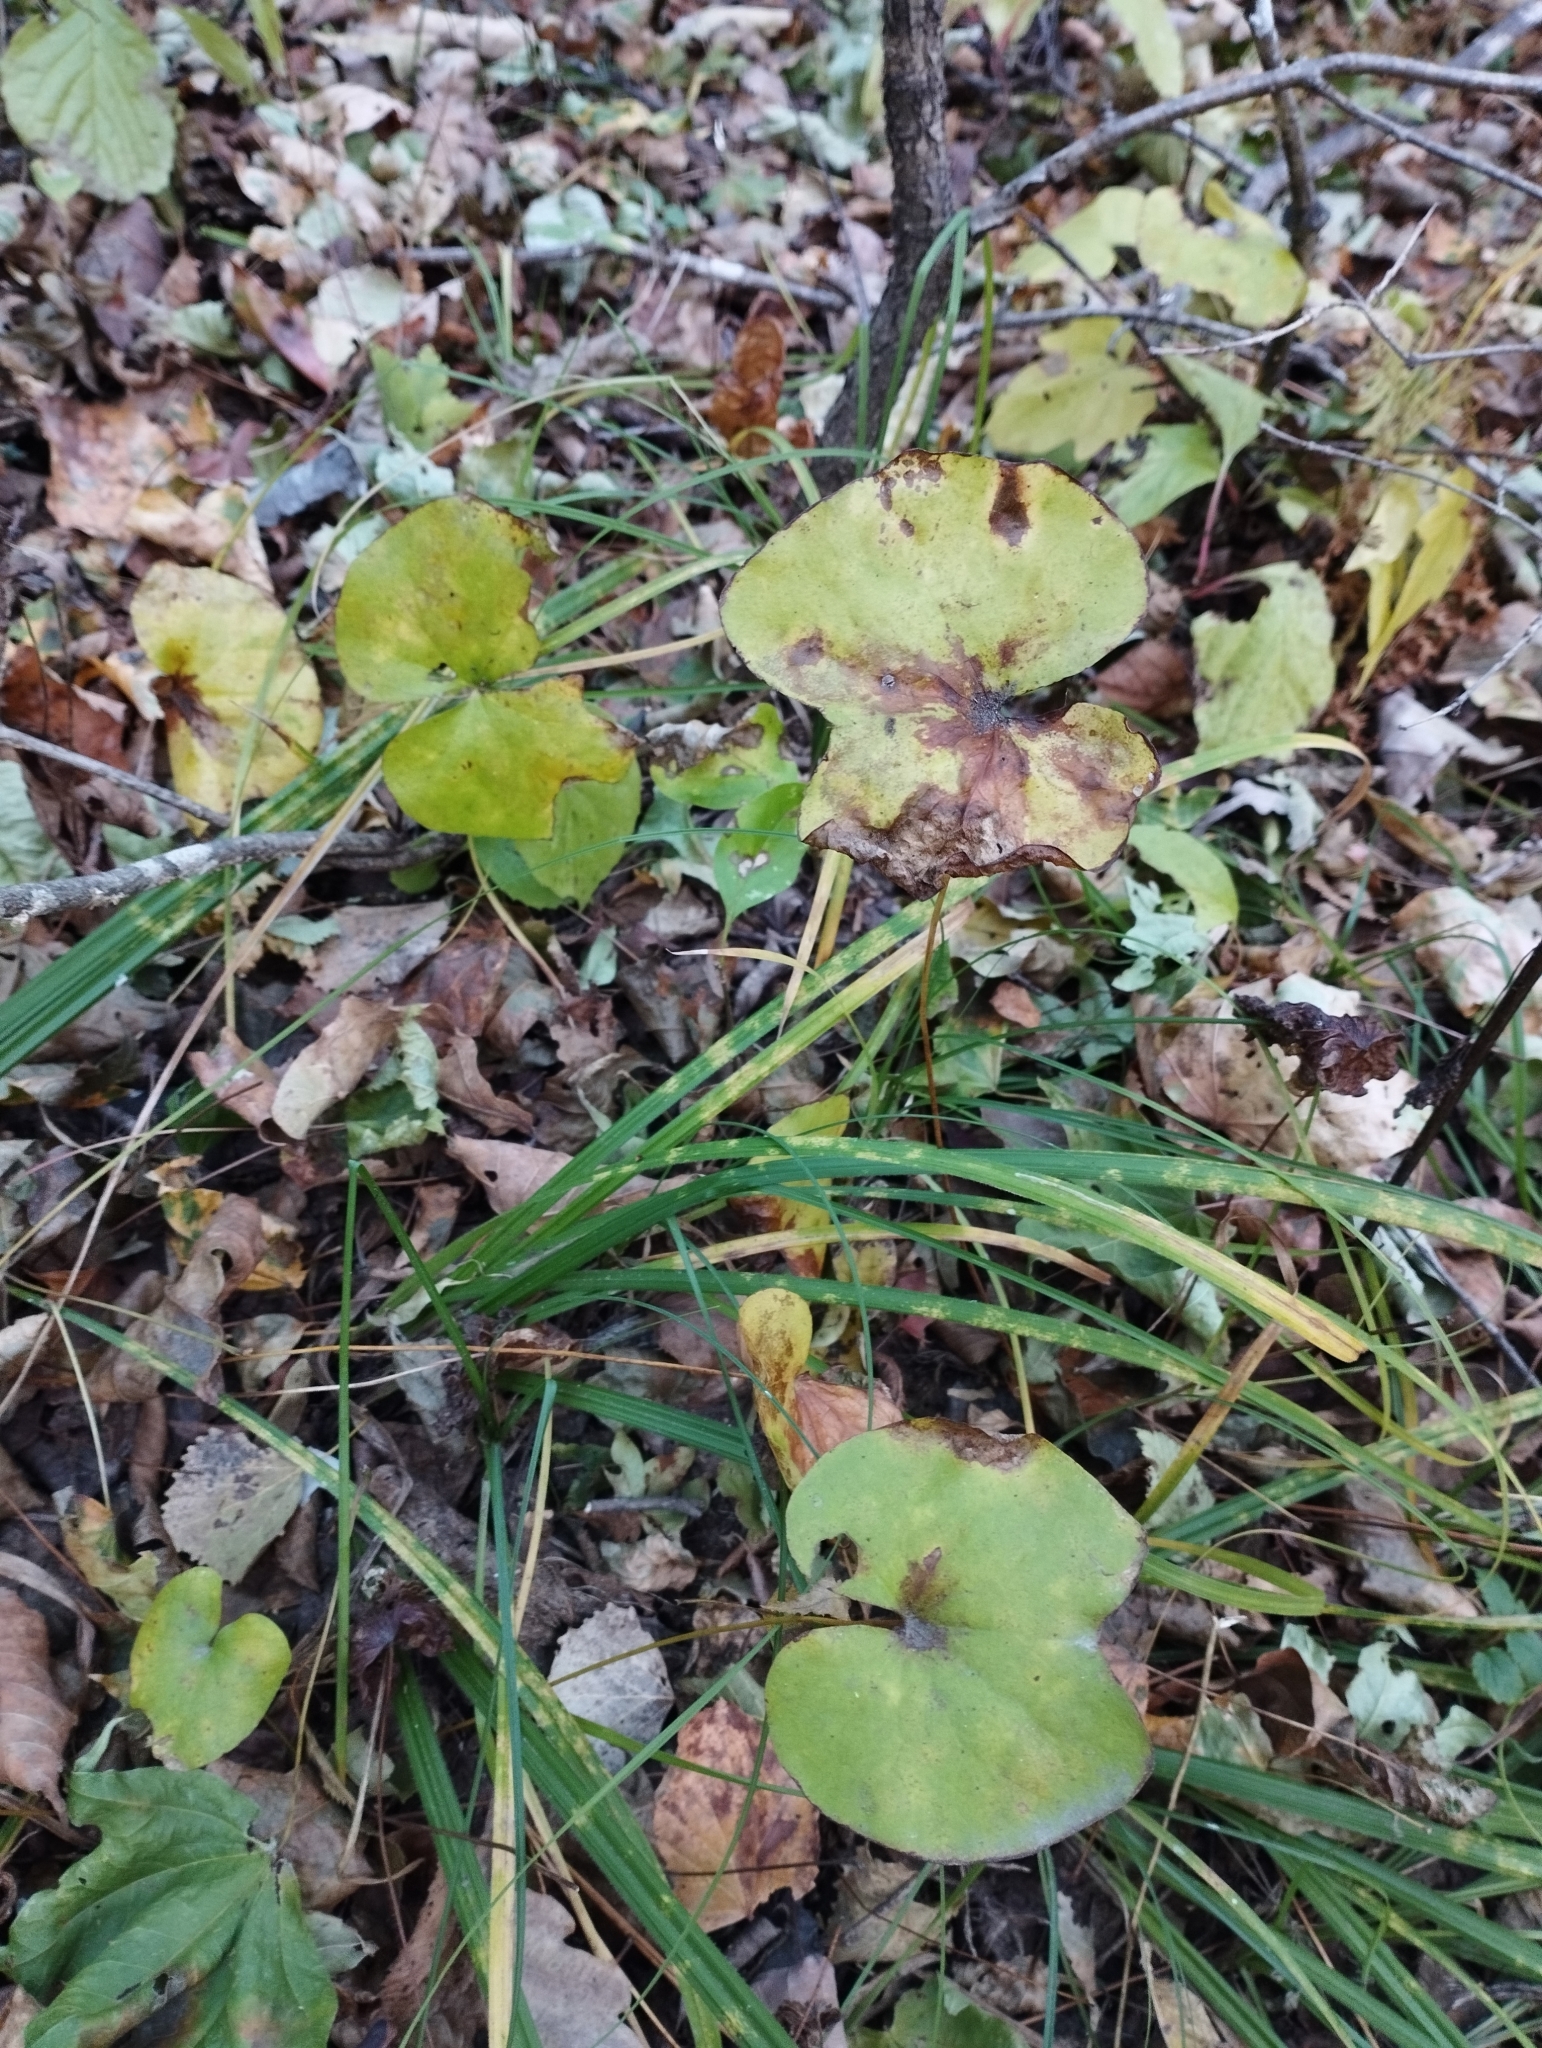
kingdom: Plantae
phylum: Tracheophyta
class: Magnoliopsida
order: Ranunculales
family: Berberidaceae
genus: Plagiorhegma
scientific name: Plagiorhegma dubium
